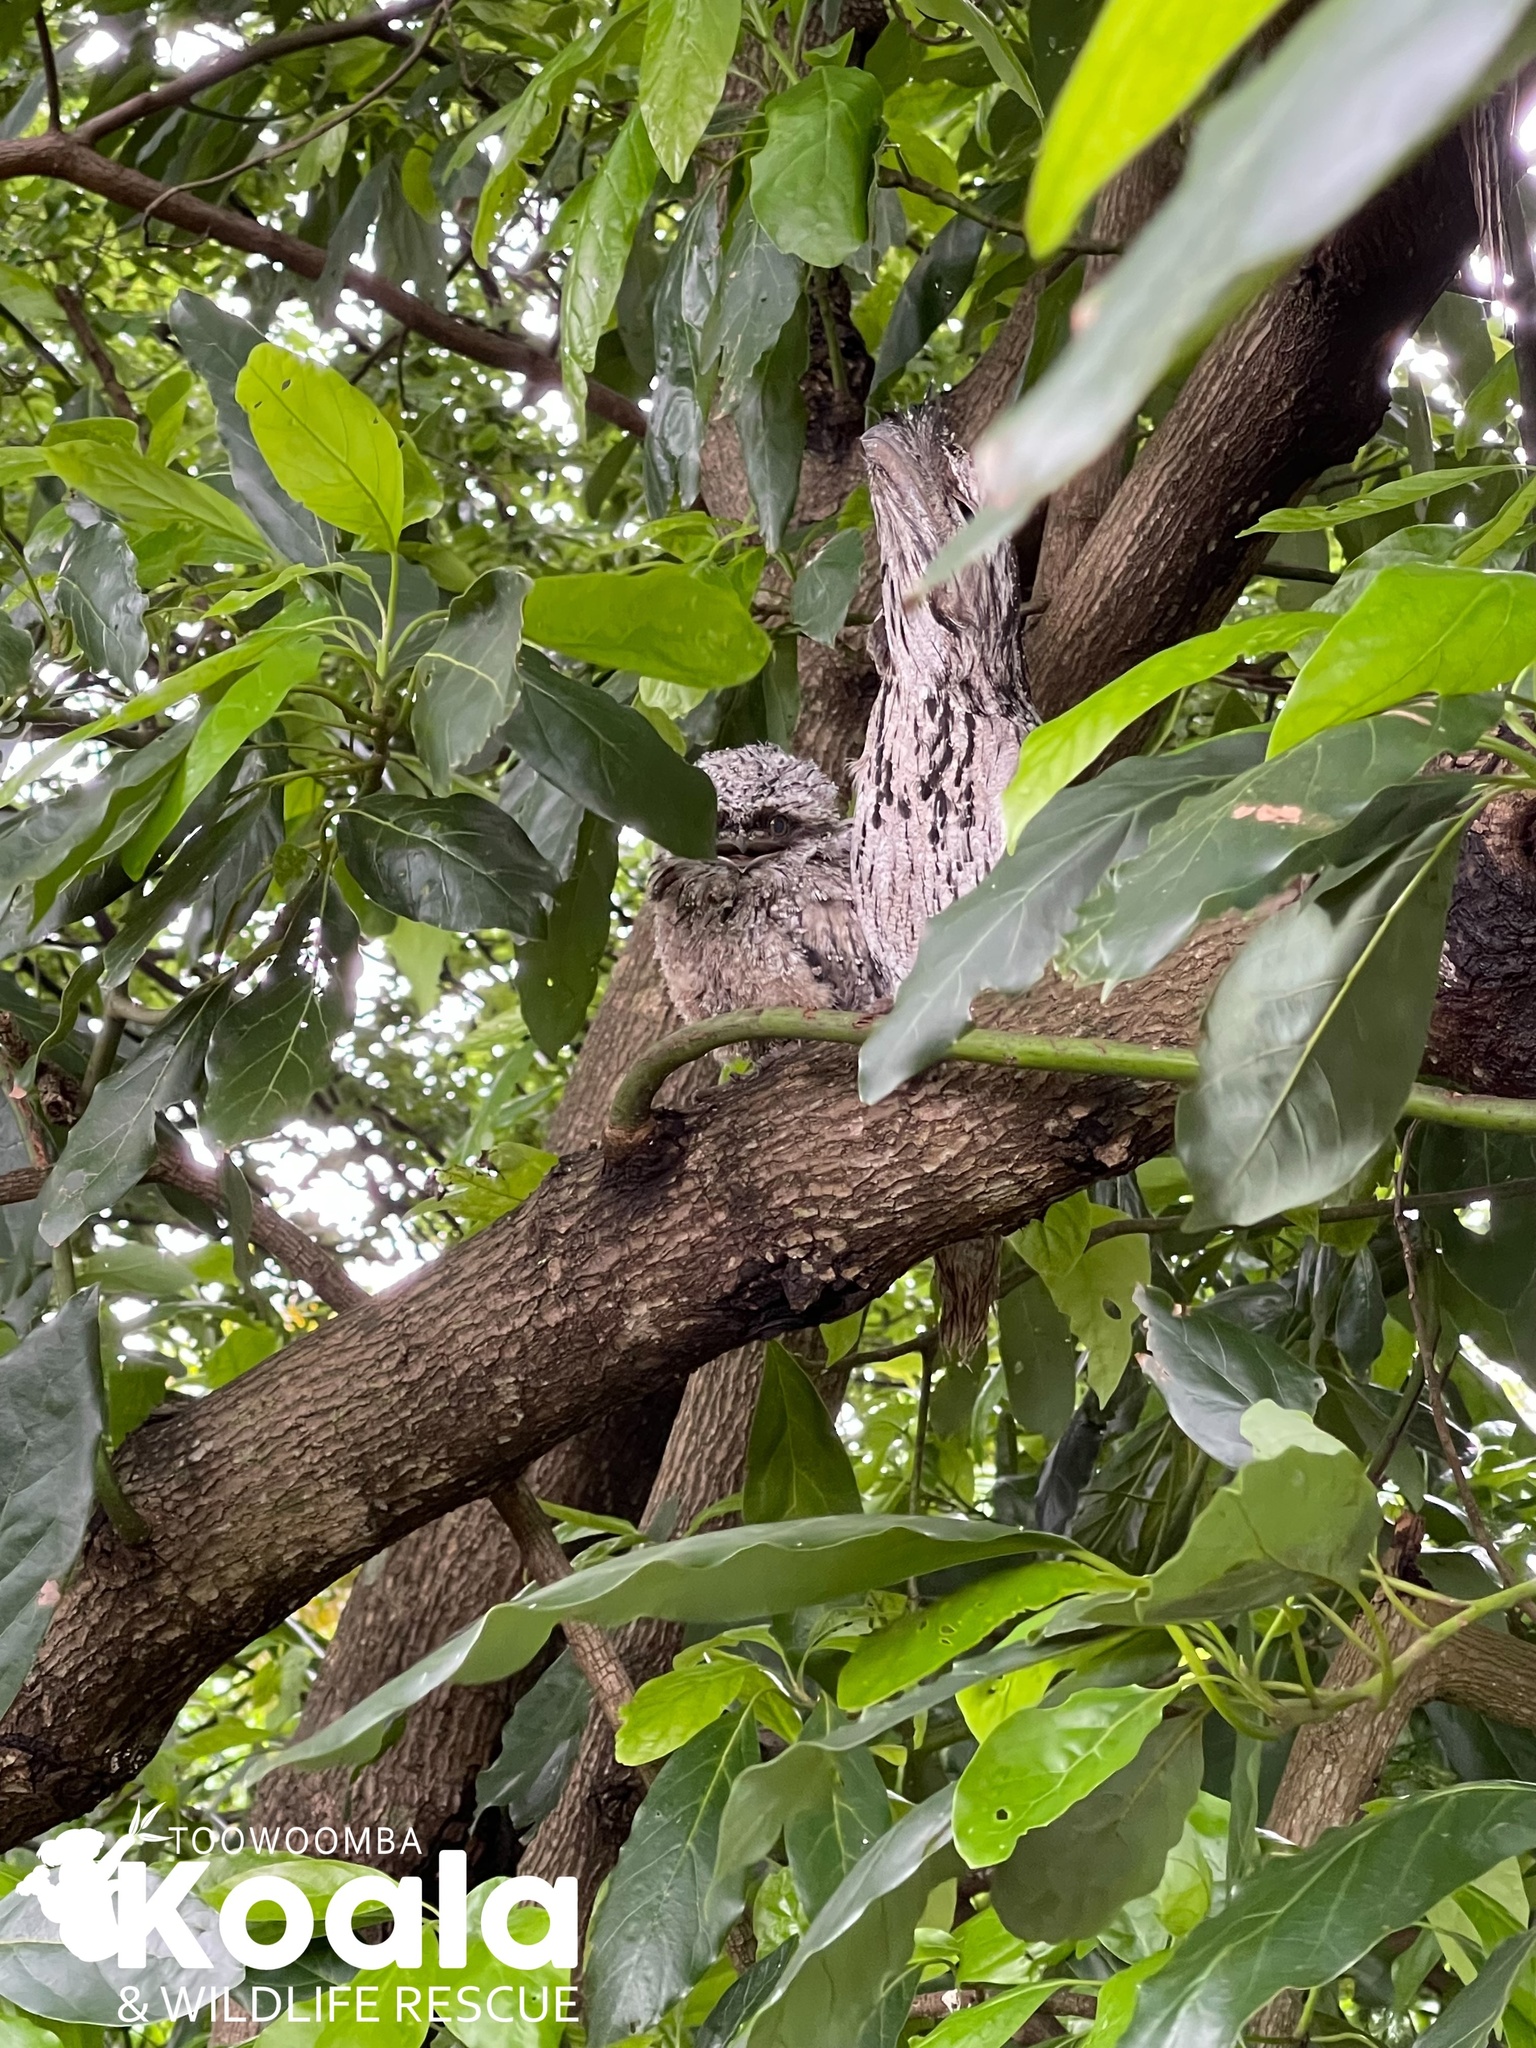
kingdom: Animalia
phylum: Chordata
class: Aves
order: Caprimulgiformes
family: Podargidae
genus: Podargus
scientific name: Podargus strigoides
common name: Tawny frogmouth
